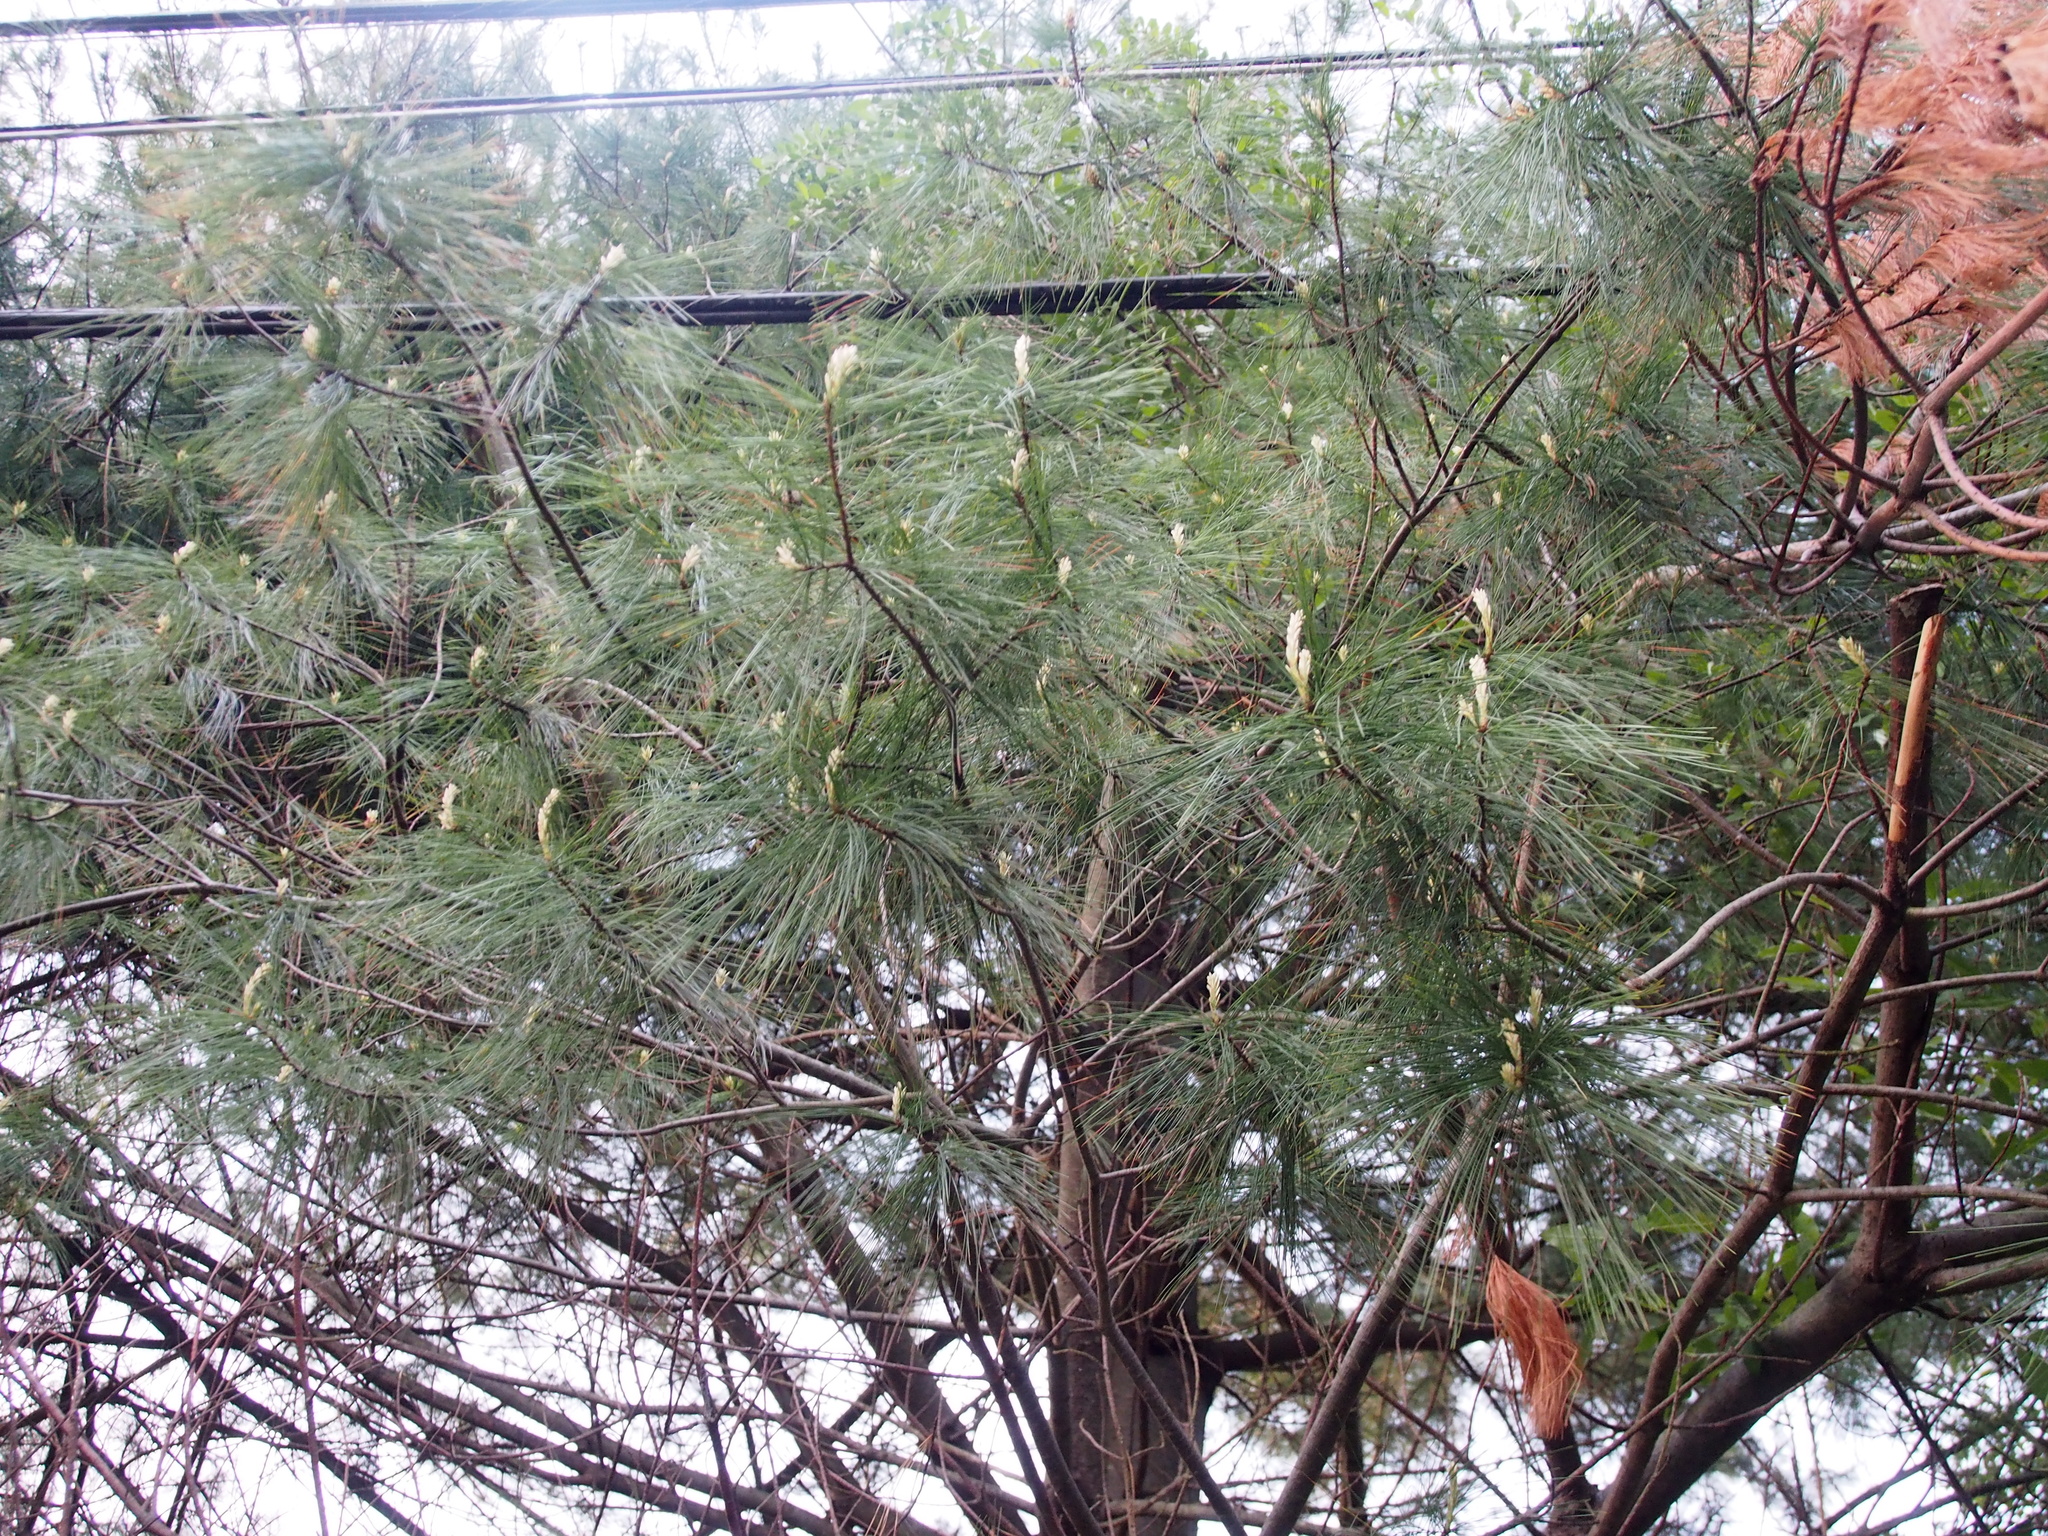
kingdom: Plantae
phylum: Tracheophyta
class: Pinopsida
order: Pinales
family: Pinaceae
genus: Pinus
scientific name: Pinus strobus
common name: Weymouth pine
